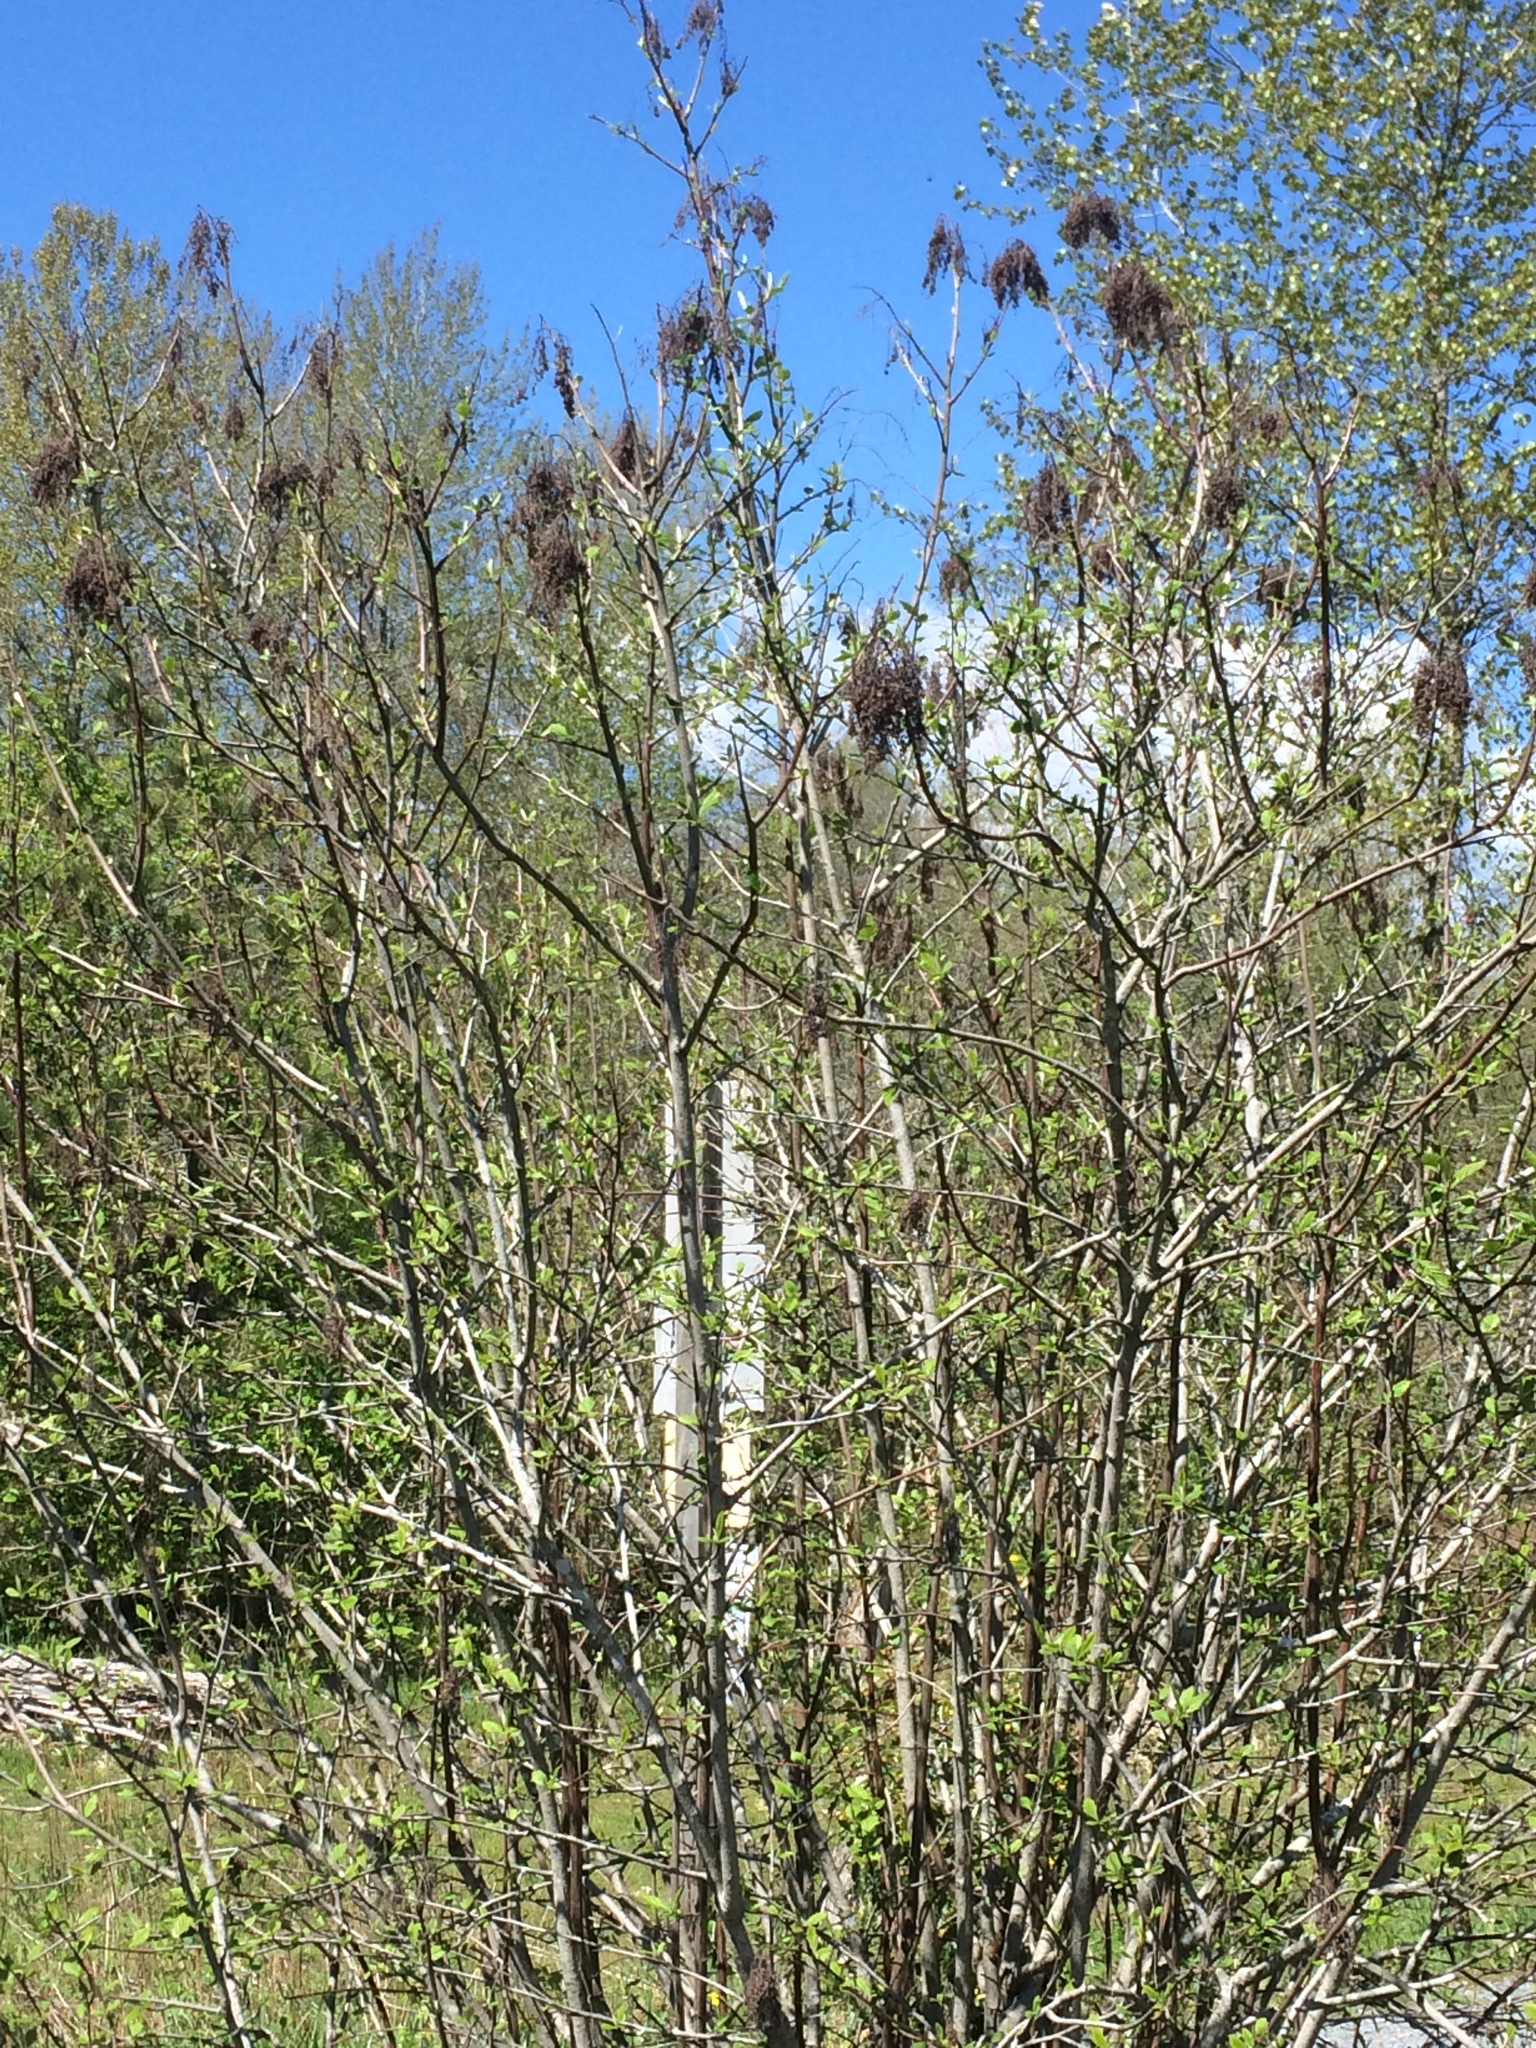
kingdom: Plantae
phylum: Tracheophyta
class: Magnoliopsida
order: Rosales
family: Rosaceae
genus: Holodiscus
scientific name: Holodiscus discolor
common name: Oceanspray
